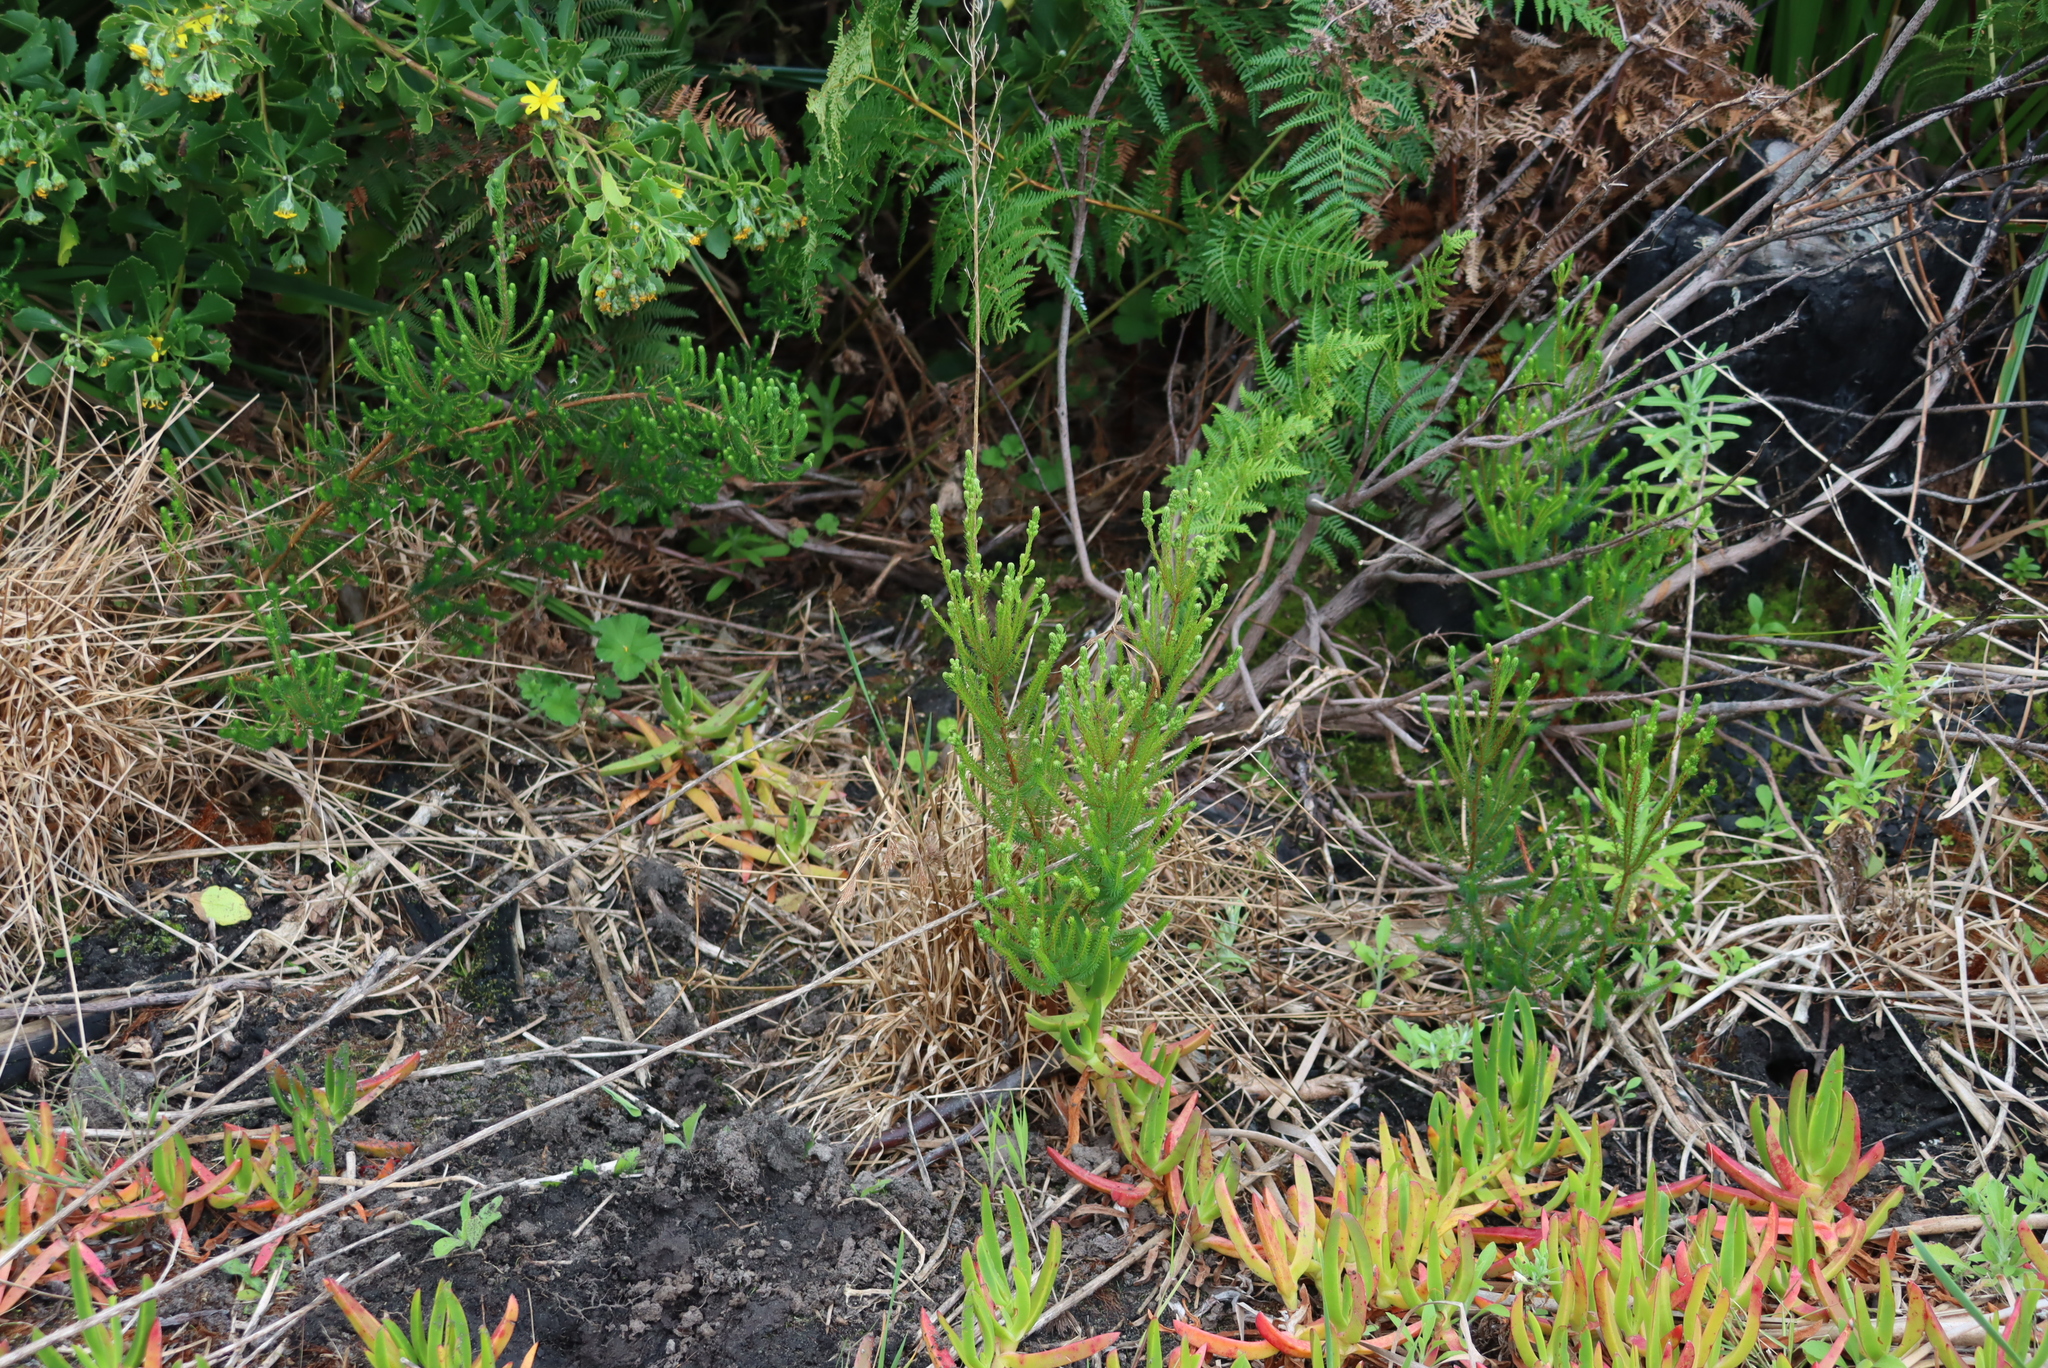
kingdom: Plantae
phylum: Tracheophyta
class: Magnoliopsida
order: Ericales
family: Ericaceae
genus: Erica
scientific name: Erica verticillata
